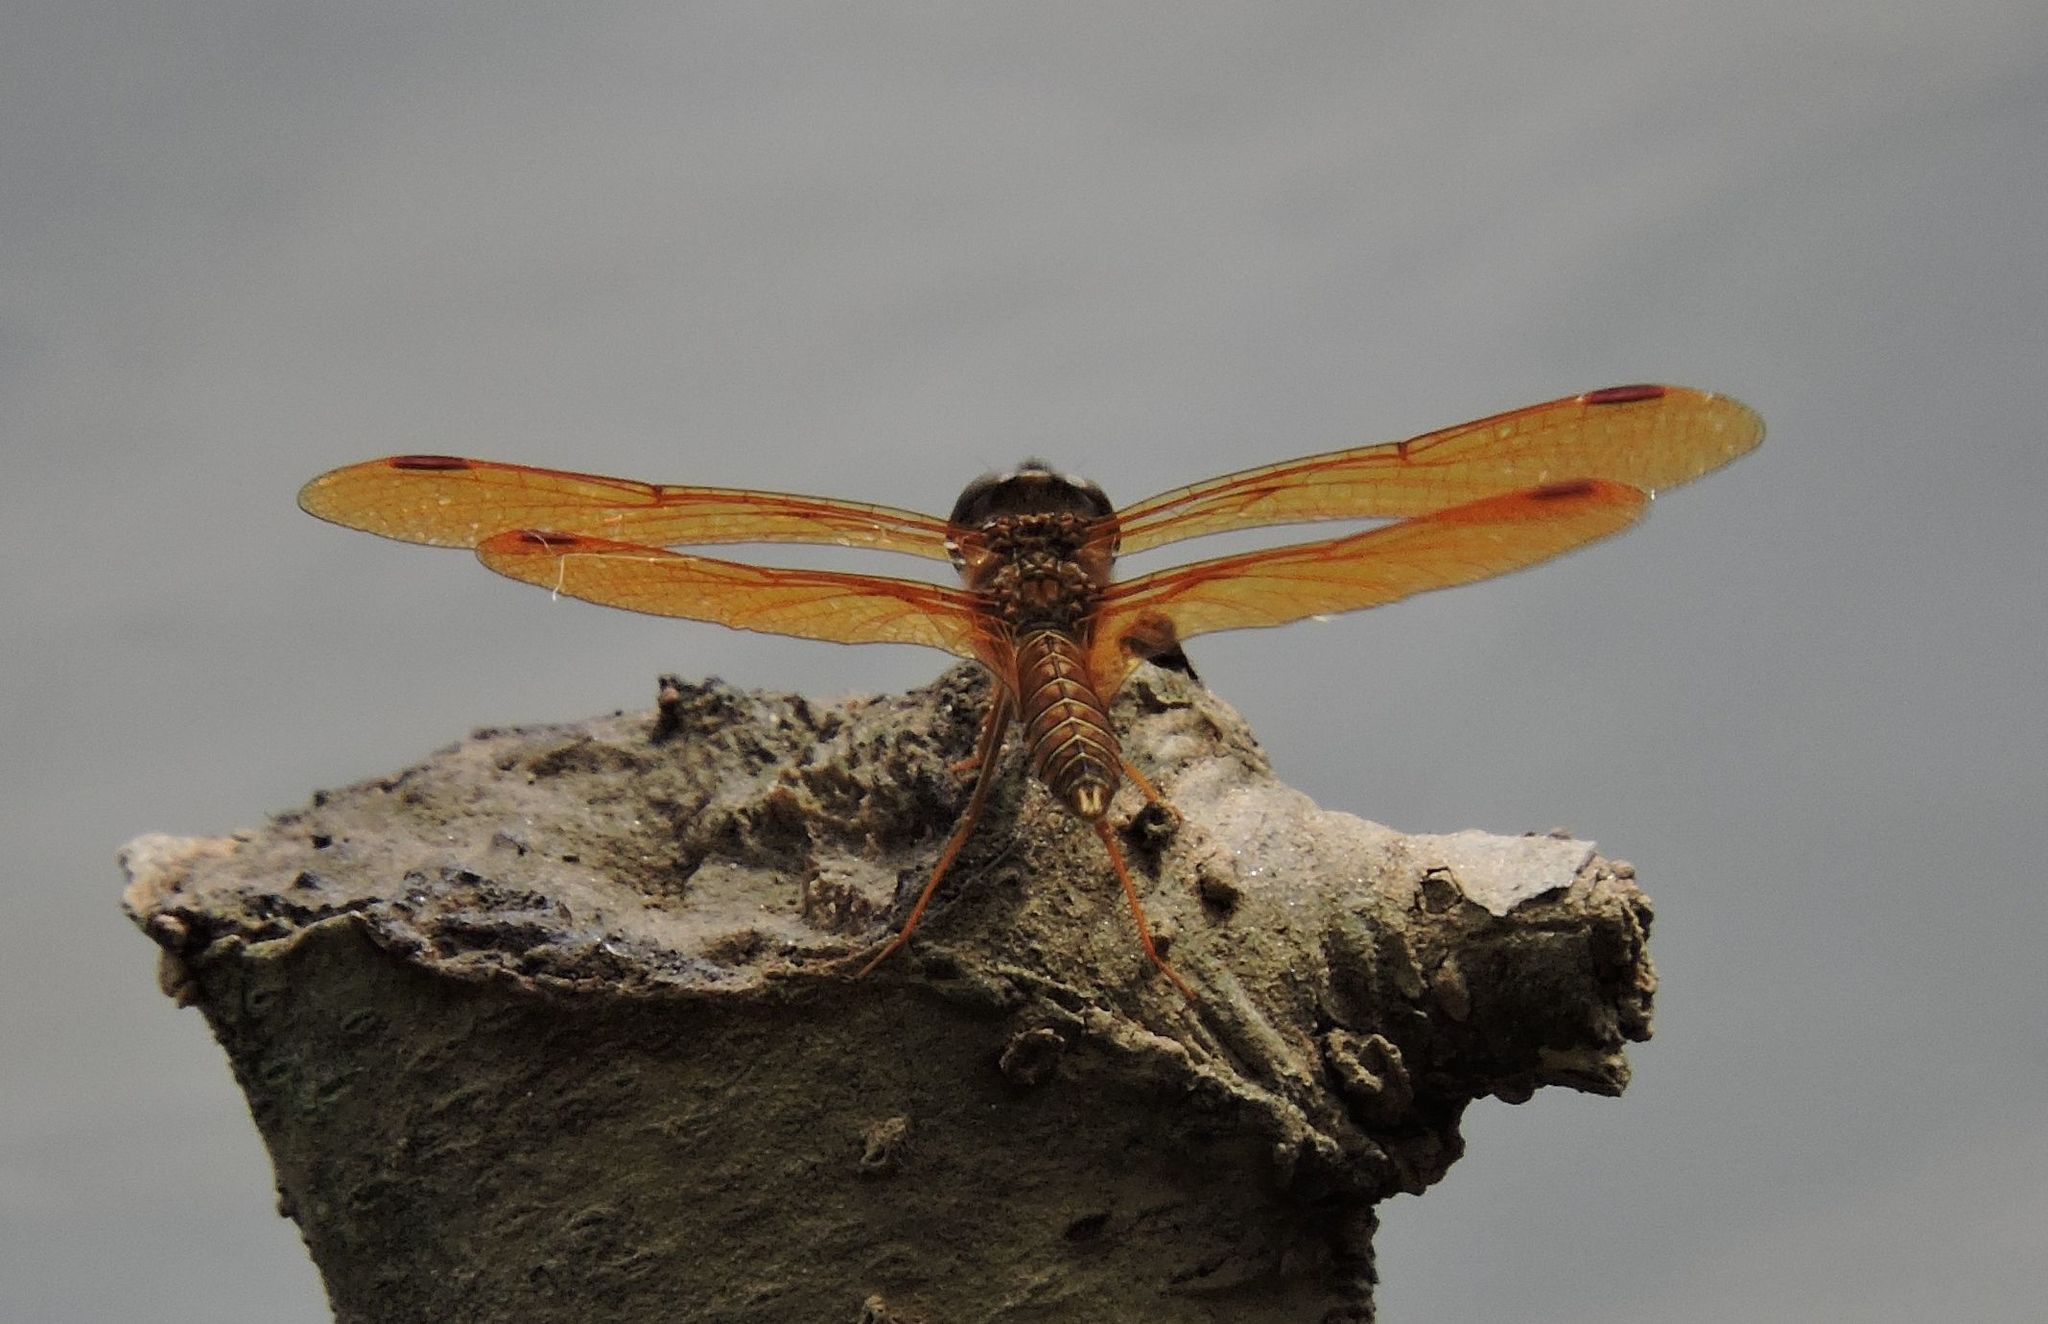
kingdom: Animalia
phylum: Arthropoda
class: Insecta
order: Odonata
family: Libellulidae
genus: Perithemis
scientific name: Perithemis tenera
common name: Eastern amberwing
